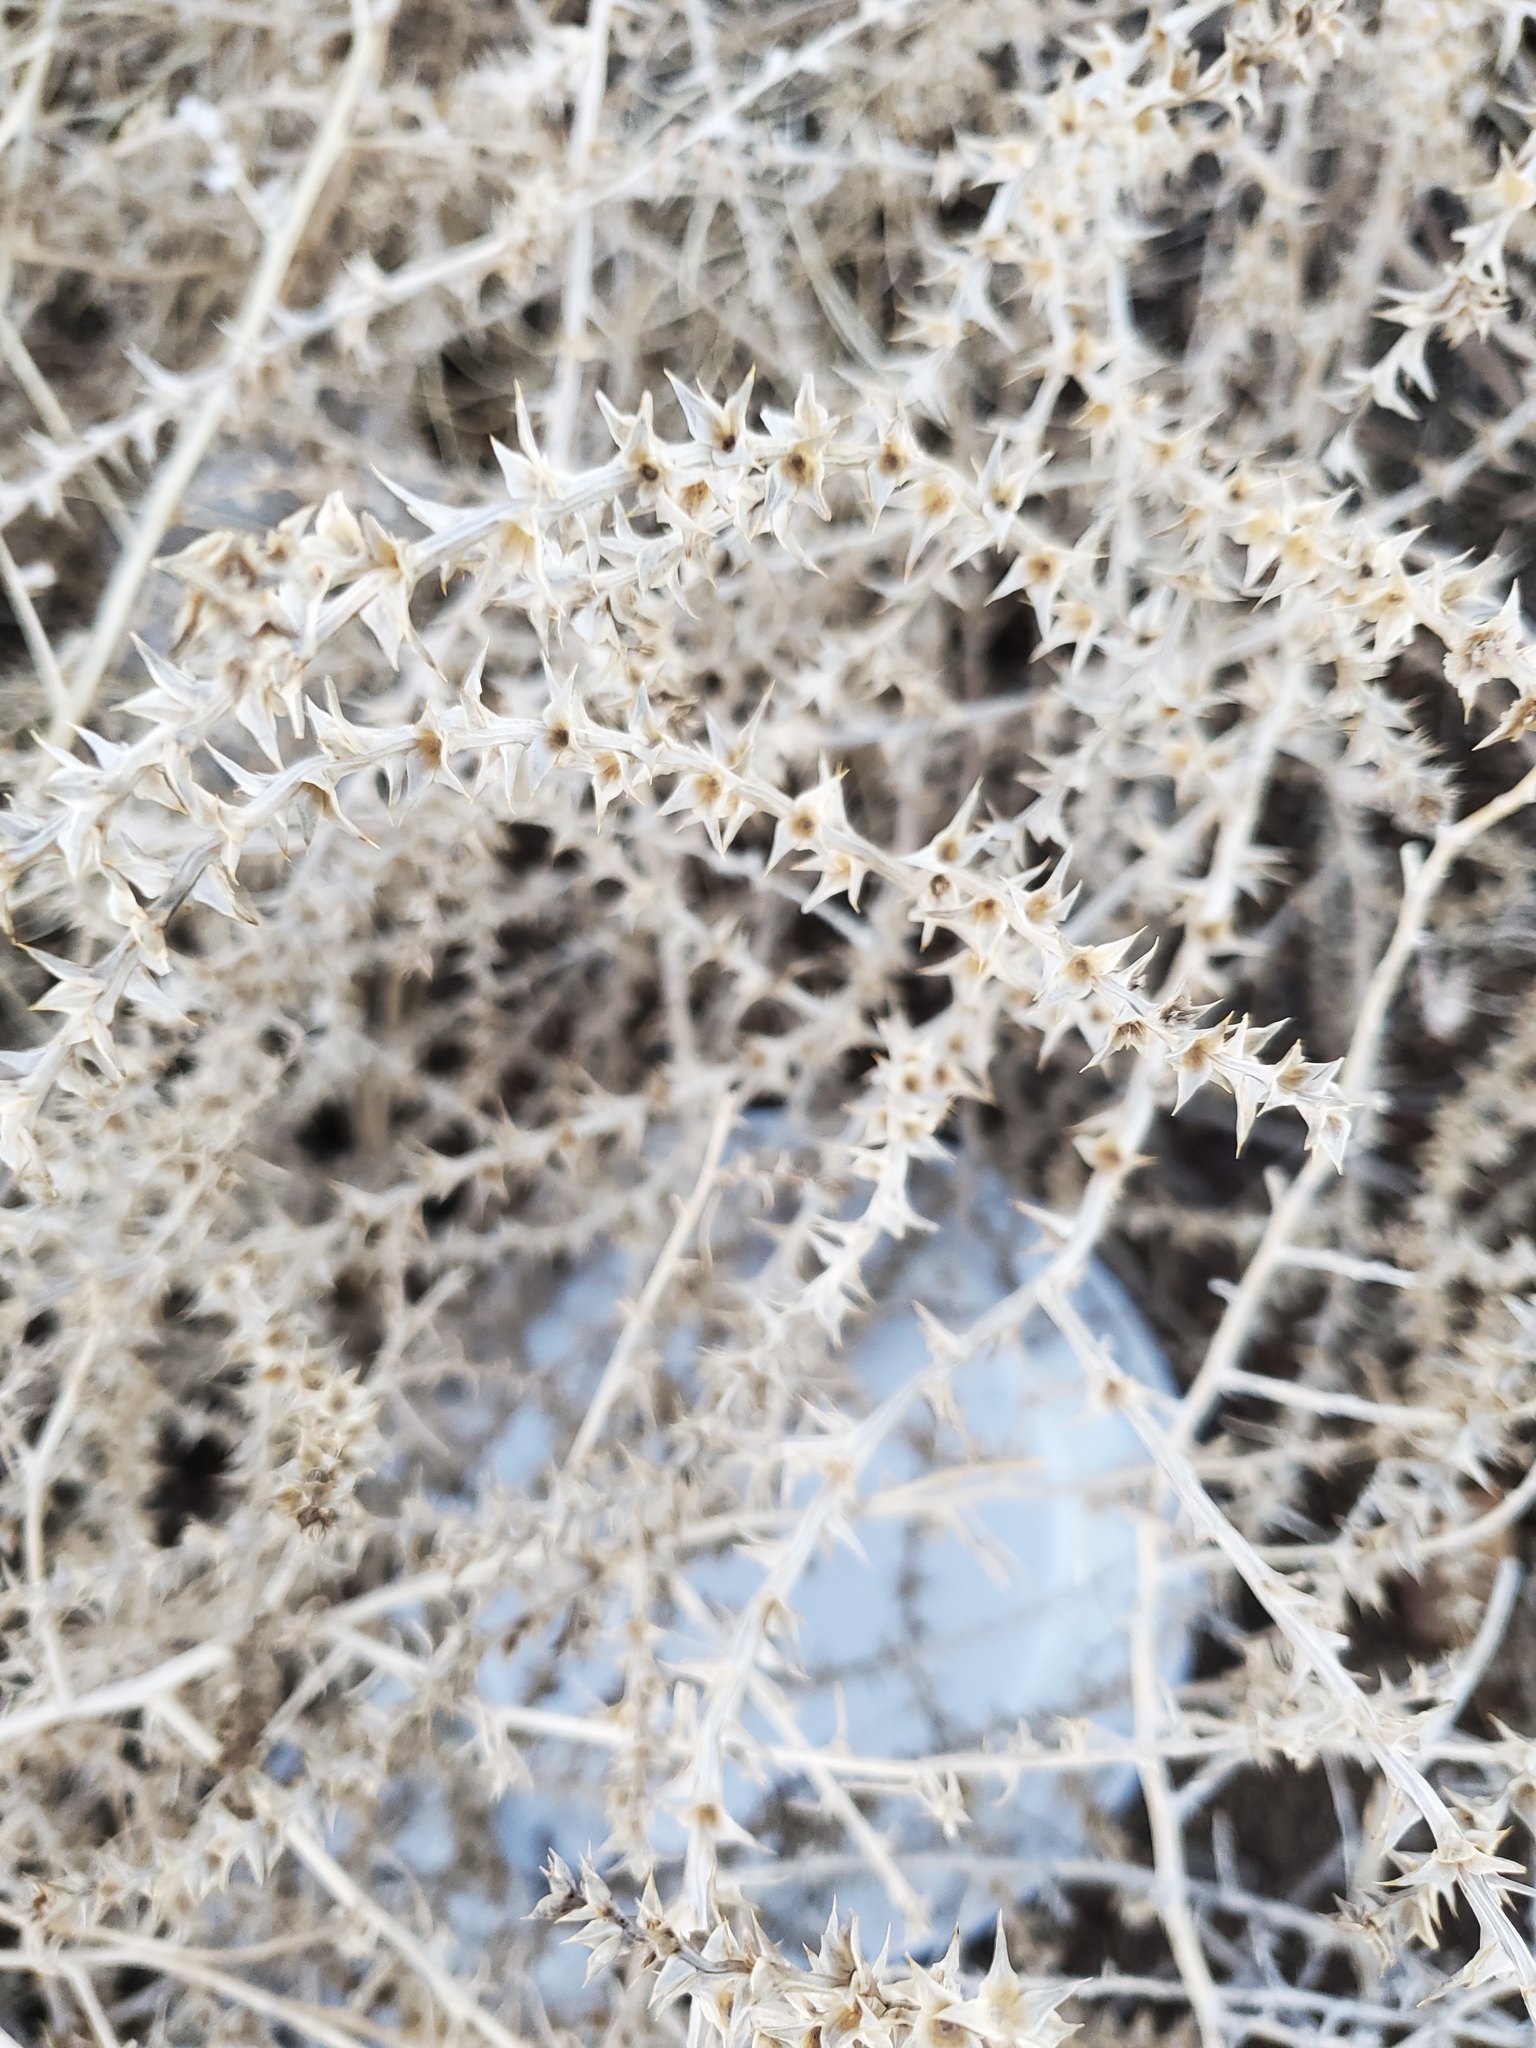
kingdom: Plantae
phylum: Tracheophyta
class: Magnoliopsida
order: Caryophyllales
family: Amaranthaceae
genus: Salsola
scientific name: Salsola tragus
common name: Prickly russian thistle
